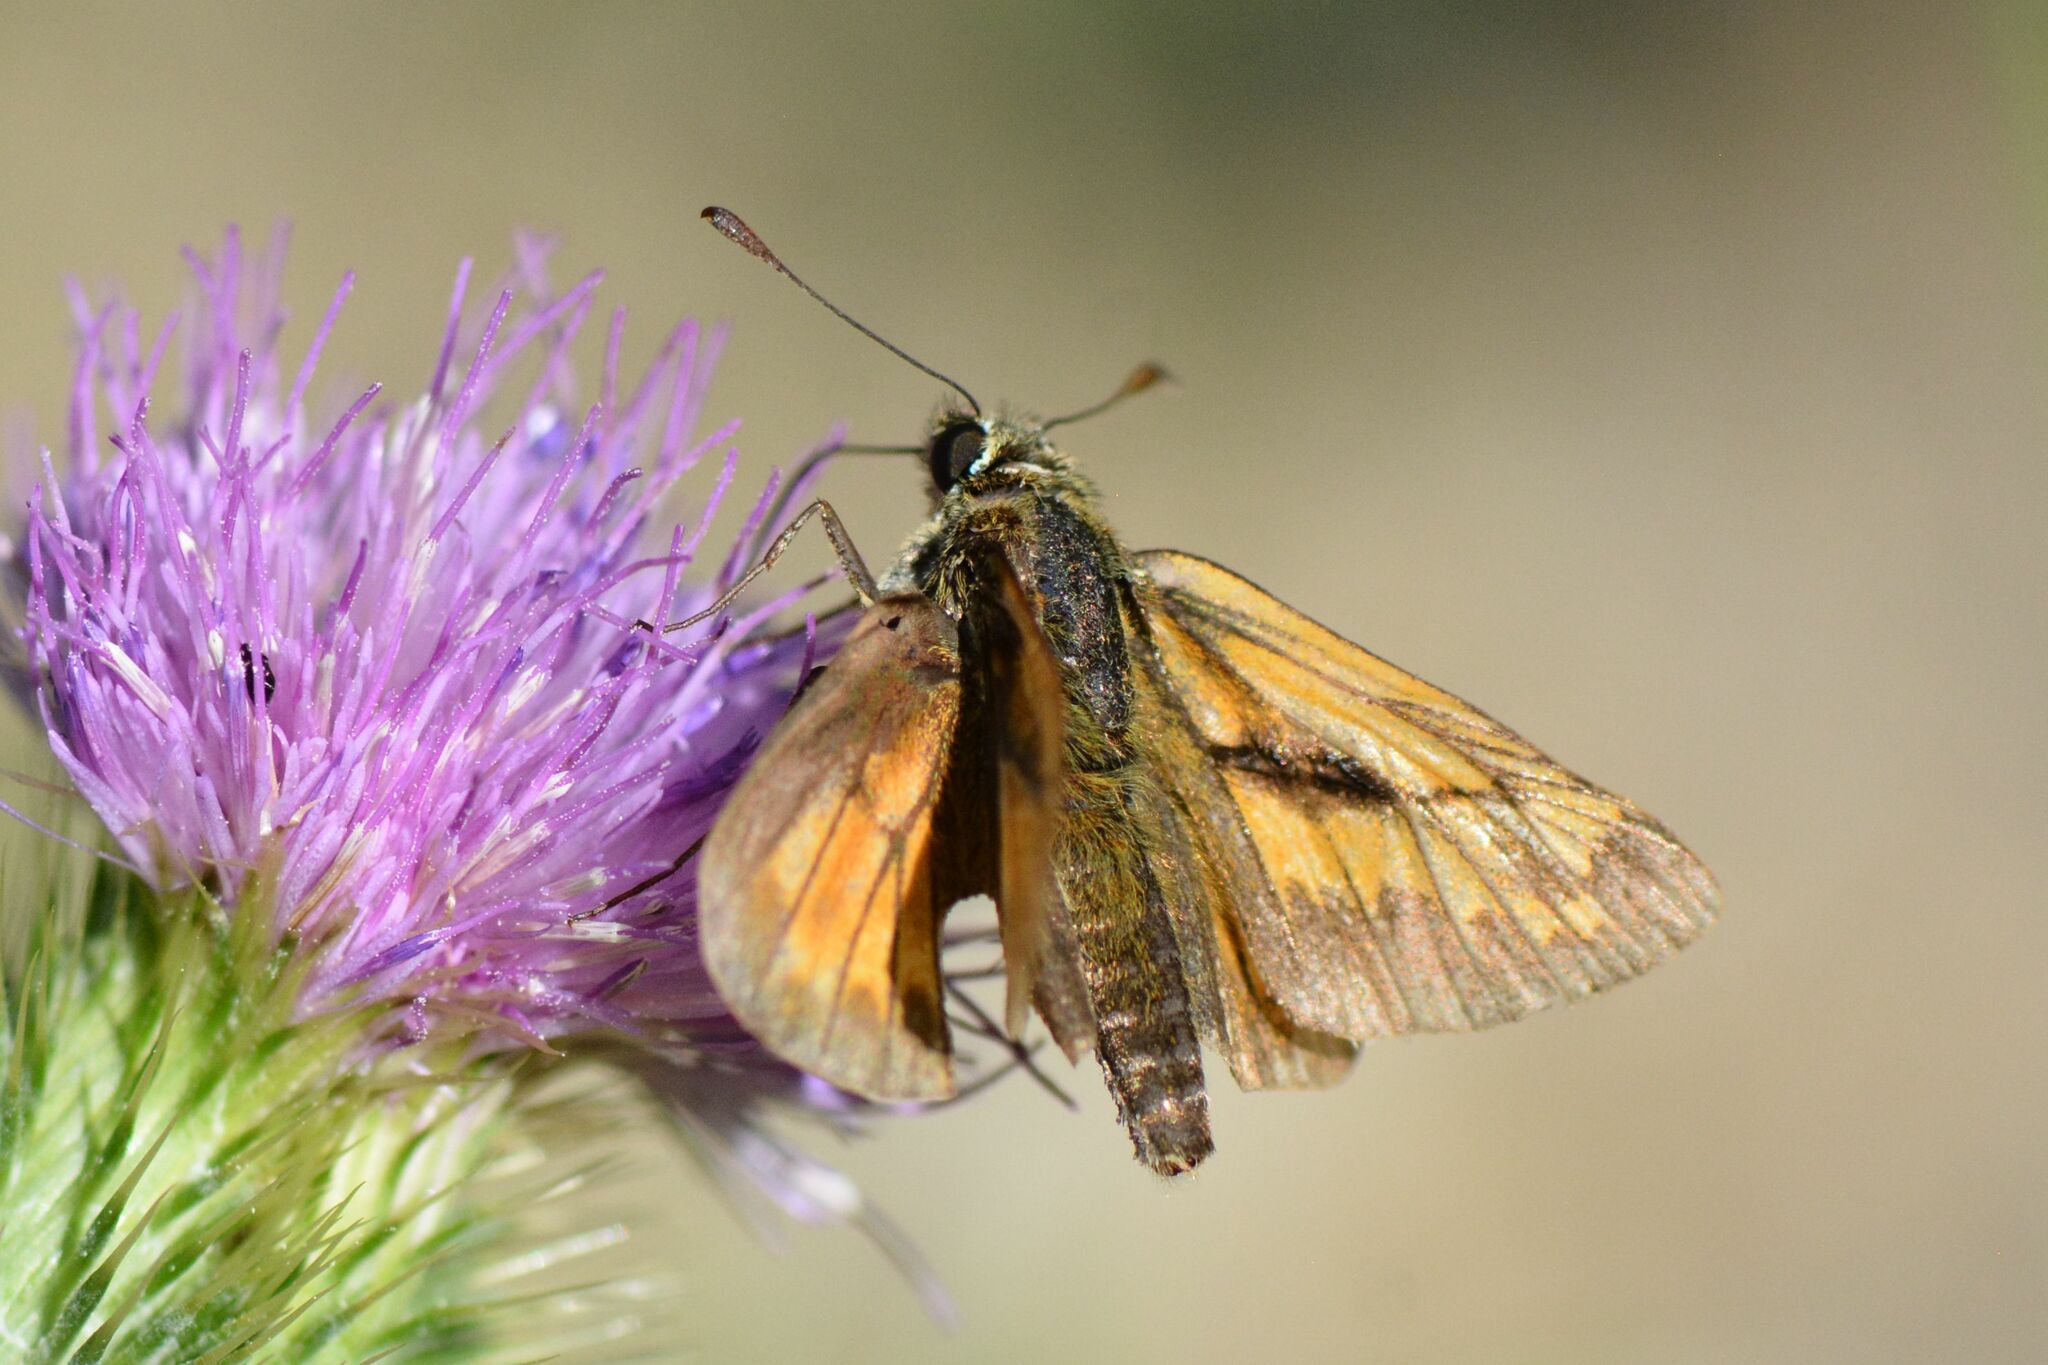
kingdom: Animalia
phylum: Arthropoda
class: Insecta
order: Lepidoptera
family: Hesperiidae
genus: Ochlodes
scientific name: Ochlodes venata
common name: Large skipper
